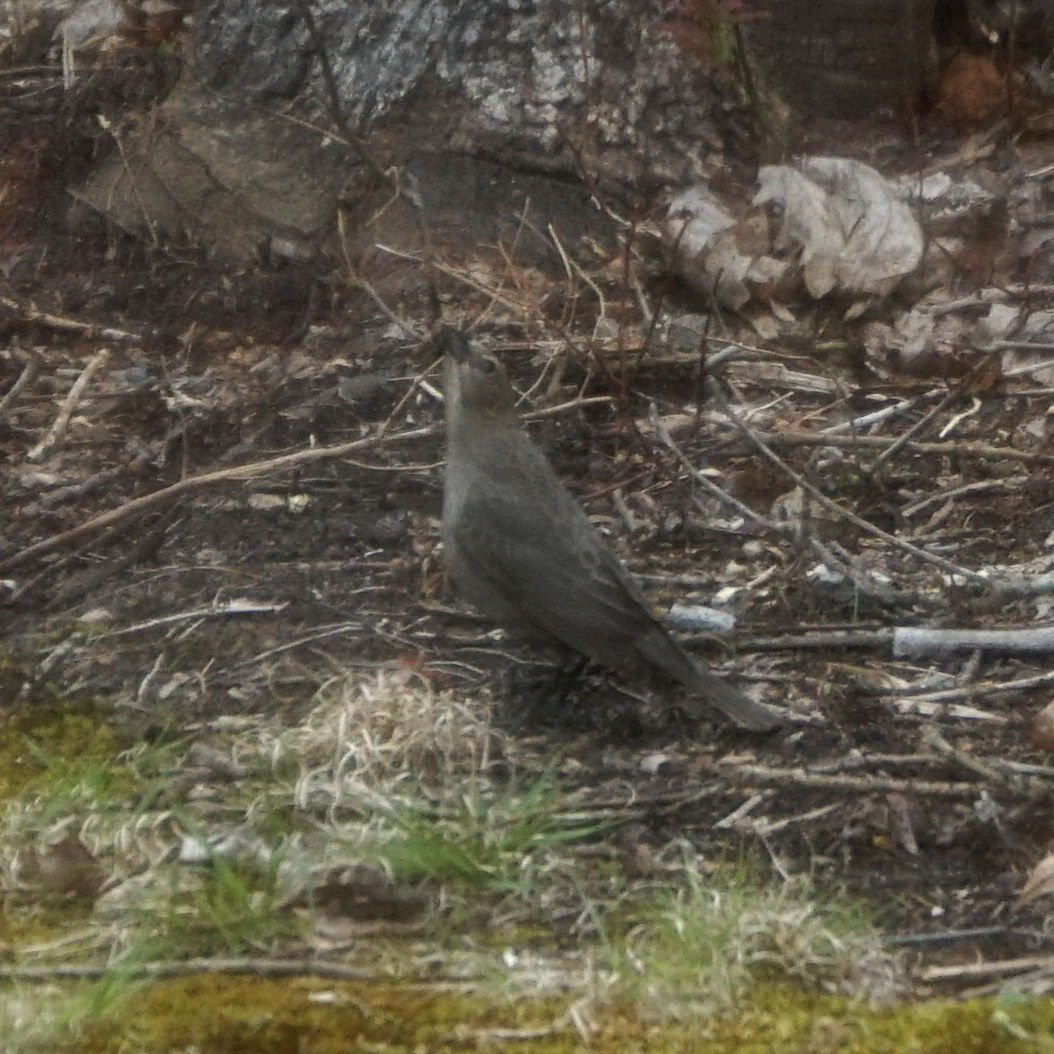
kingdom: Animalia
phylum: Chordata
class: Aves
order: Passeriformes
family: Icteridae
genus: Molothrus
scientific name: Molothrus ater
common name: Brown-headed cowbird
